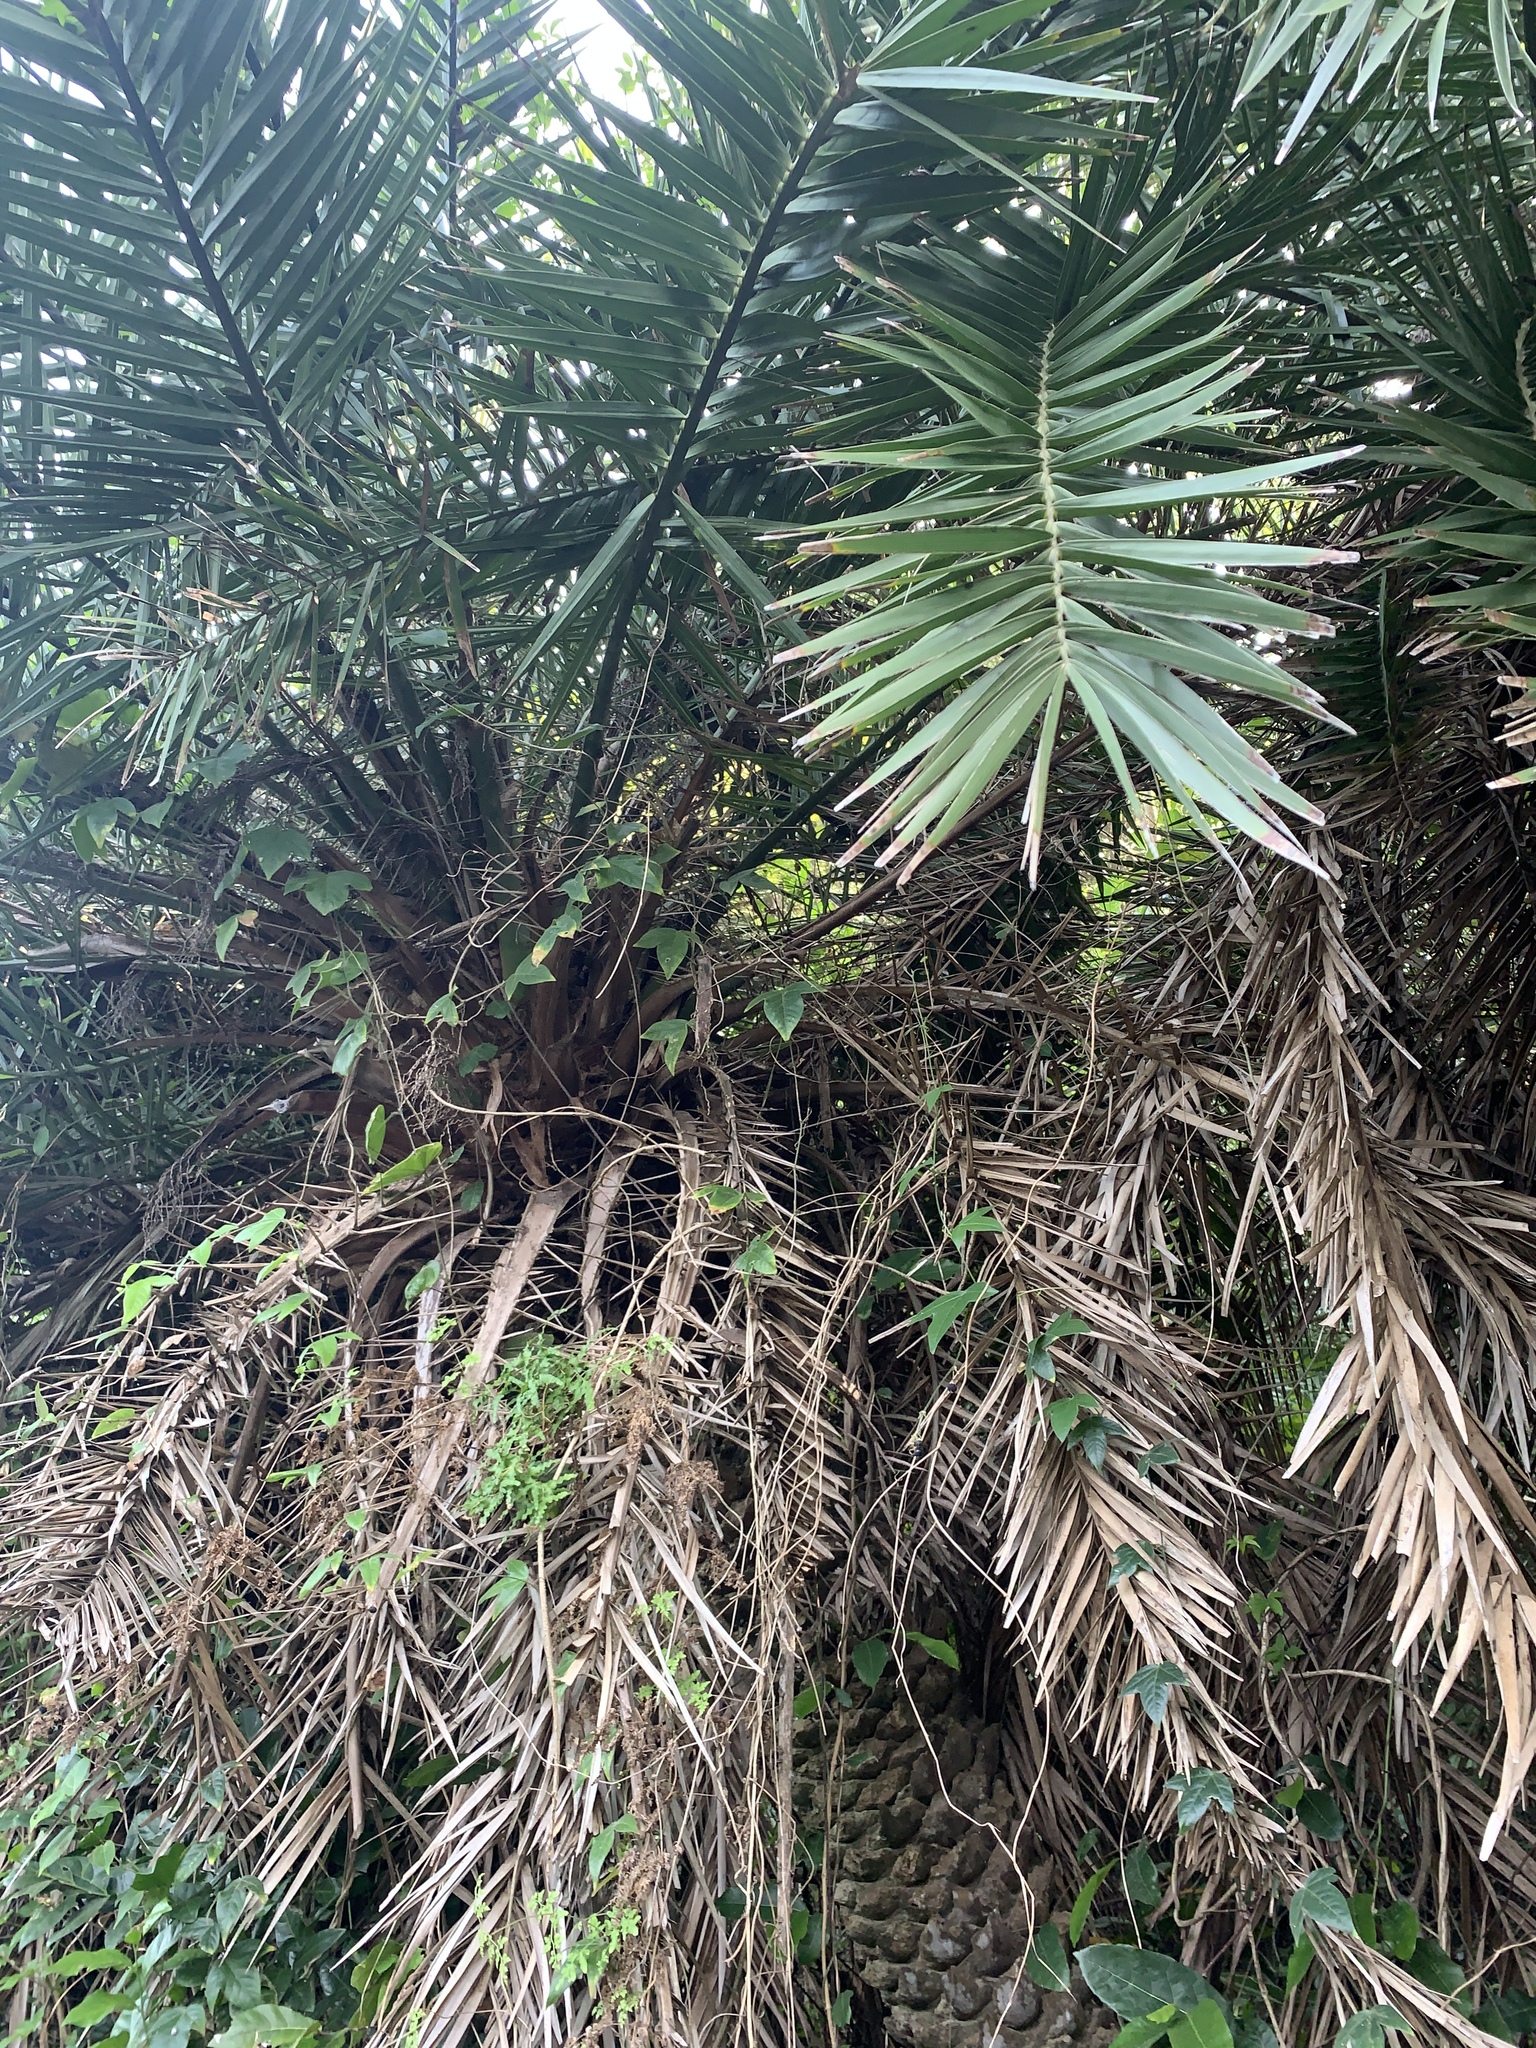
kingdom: Plantae
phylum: Tracheophyta
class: Liliopsida
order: Arecales
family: Arecaceae
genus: Phoenix
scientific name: Phoenix loureiroi
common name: Loureiro's palm
